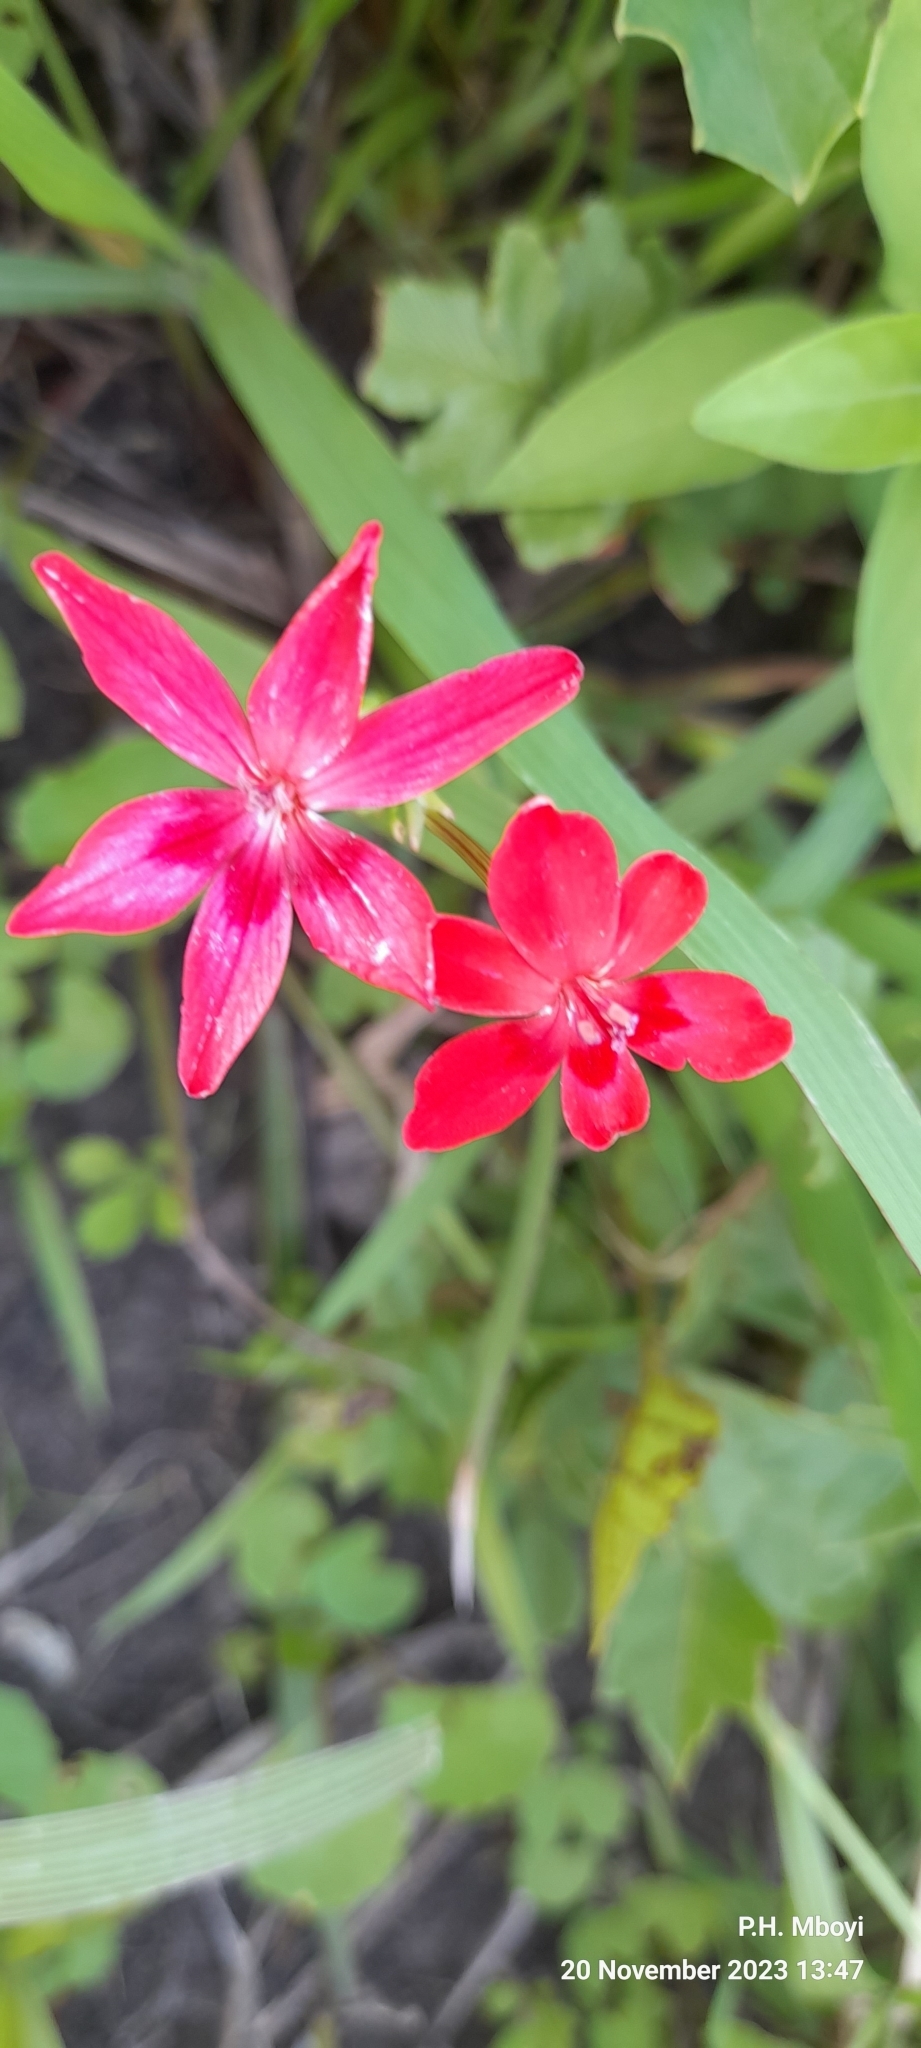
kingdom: Plantae
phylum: Tracheophyta
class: Liliopsida
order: Asparagales
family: Iridaceae
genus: Freesia
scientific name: Freesia laxa
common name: False freesia
